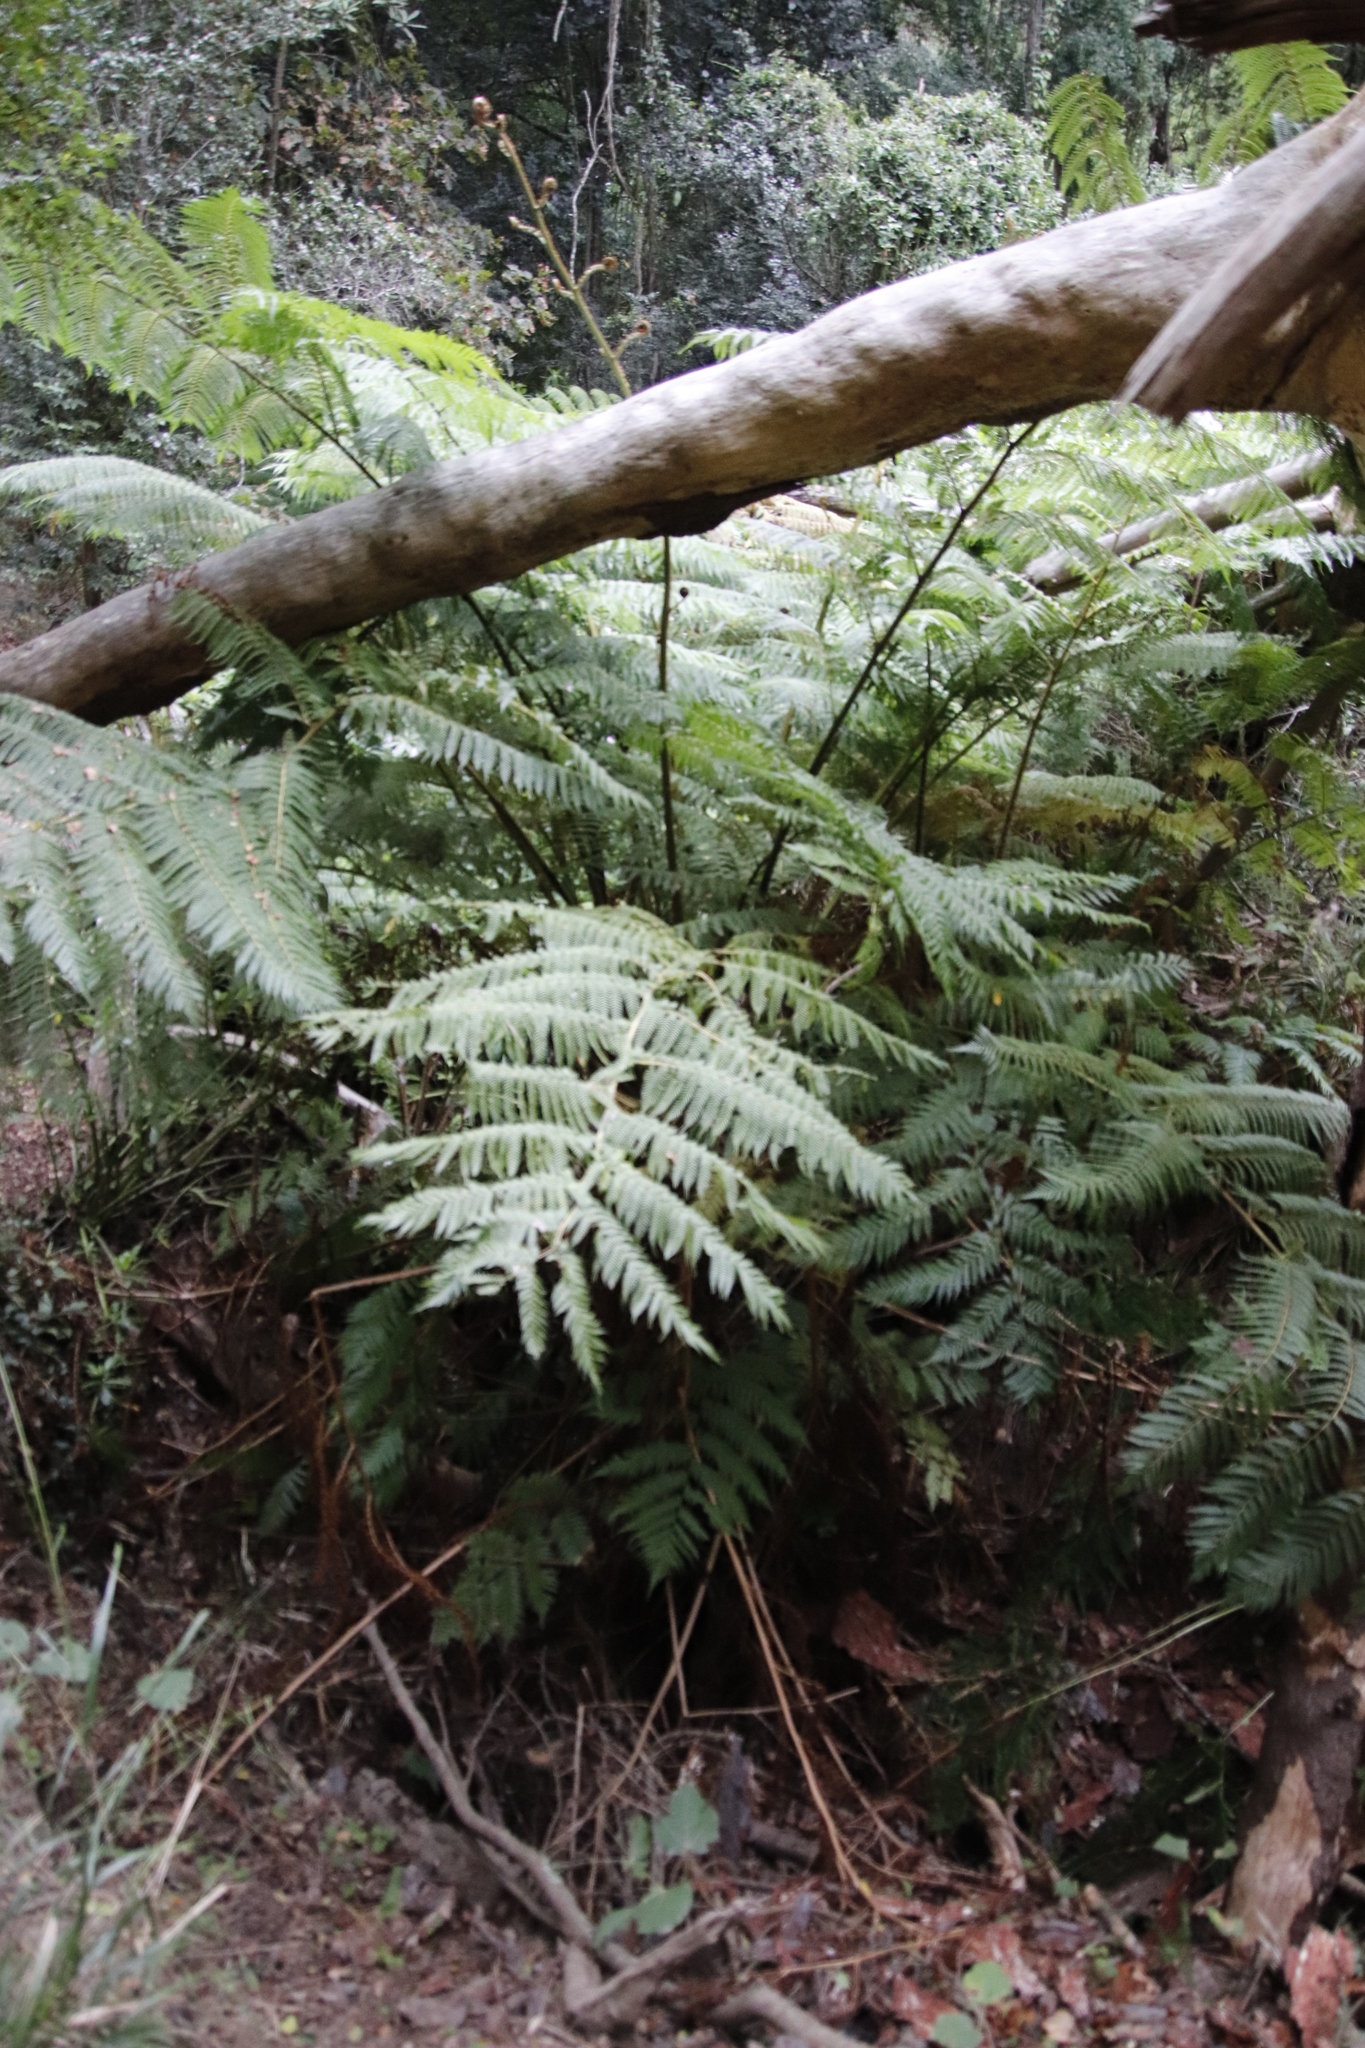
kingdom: Plantae
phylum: Tracheophyta
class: Polypodiopsida
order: Cyatheales
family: Cyatheaceae
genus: Sphaeropteris
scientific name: Sphaeropteris cooperi
